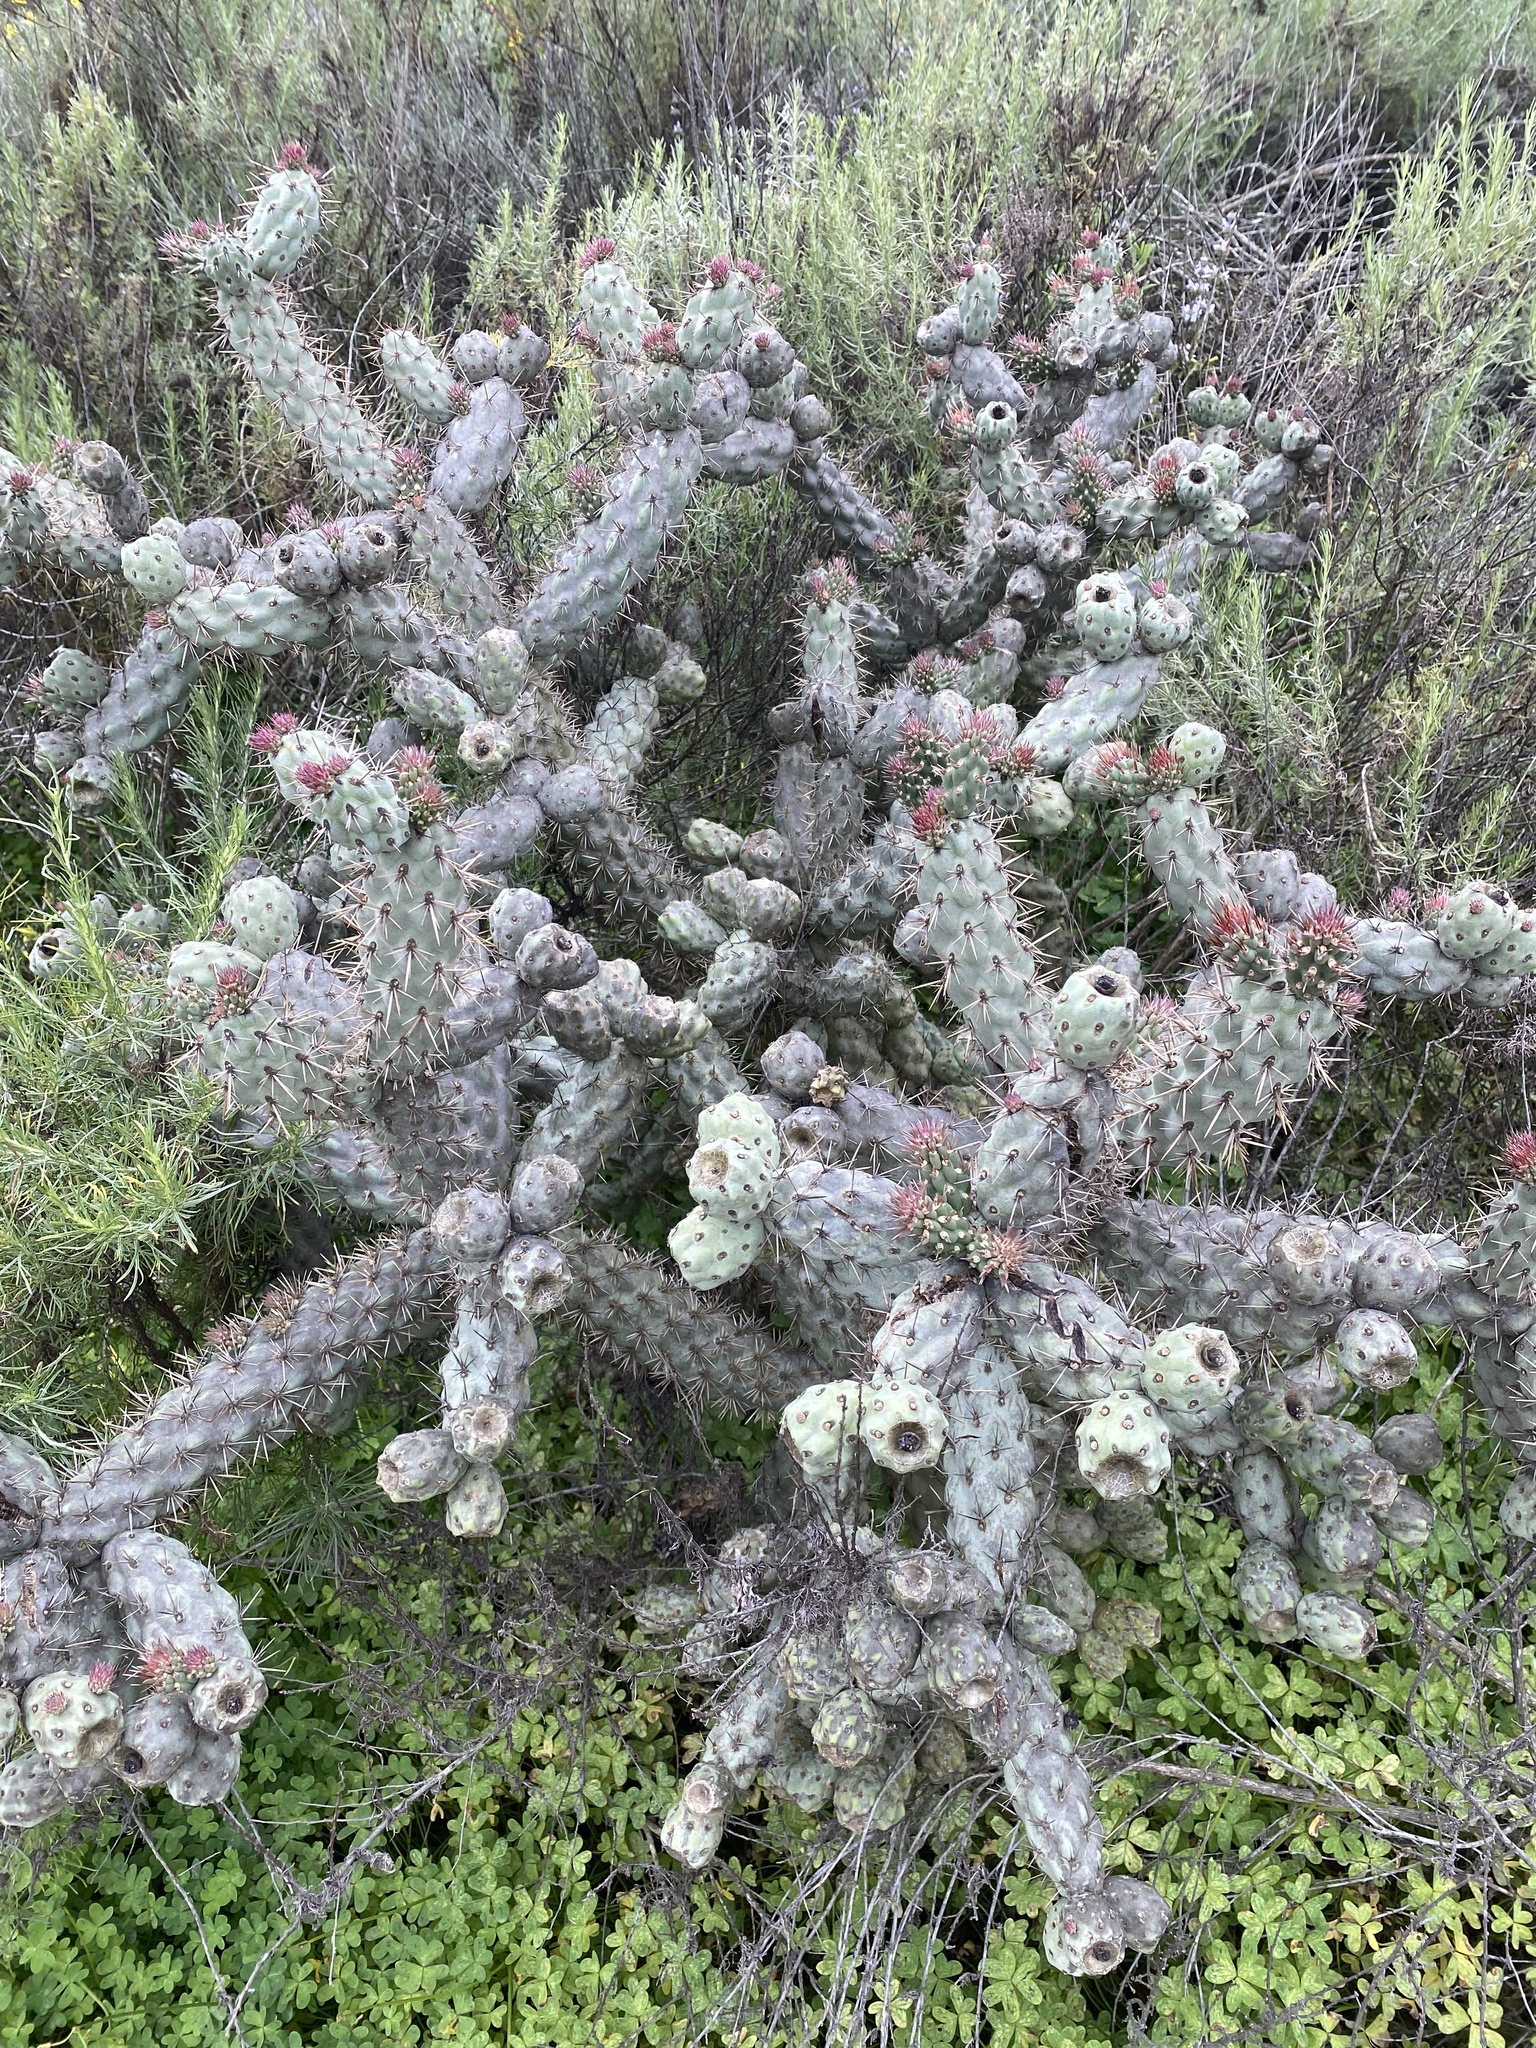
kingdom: Plantae
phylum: Tracheophyta
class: Magnoliopsida
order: Caryophyllales
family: Cactaceae
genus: Cylindropuntia
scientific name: Cylindropuntia prolifera
